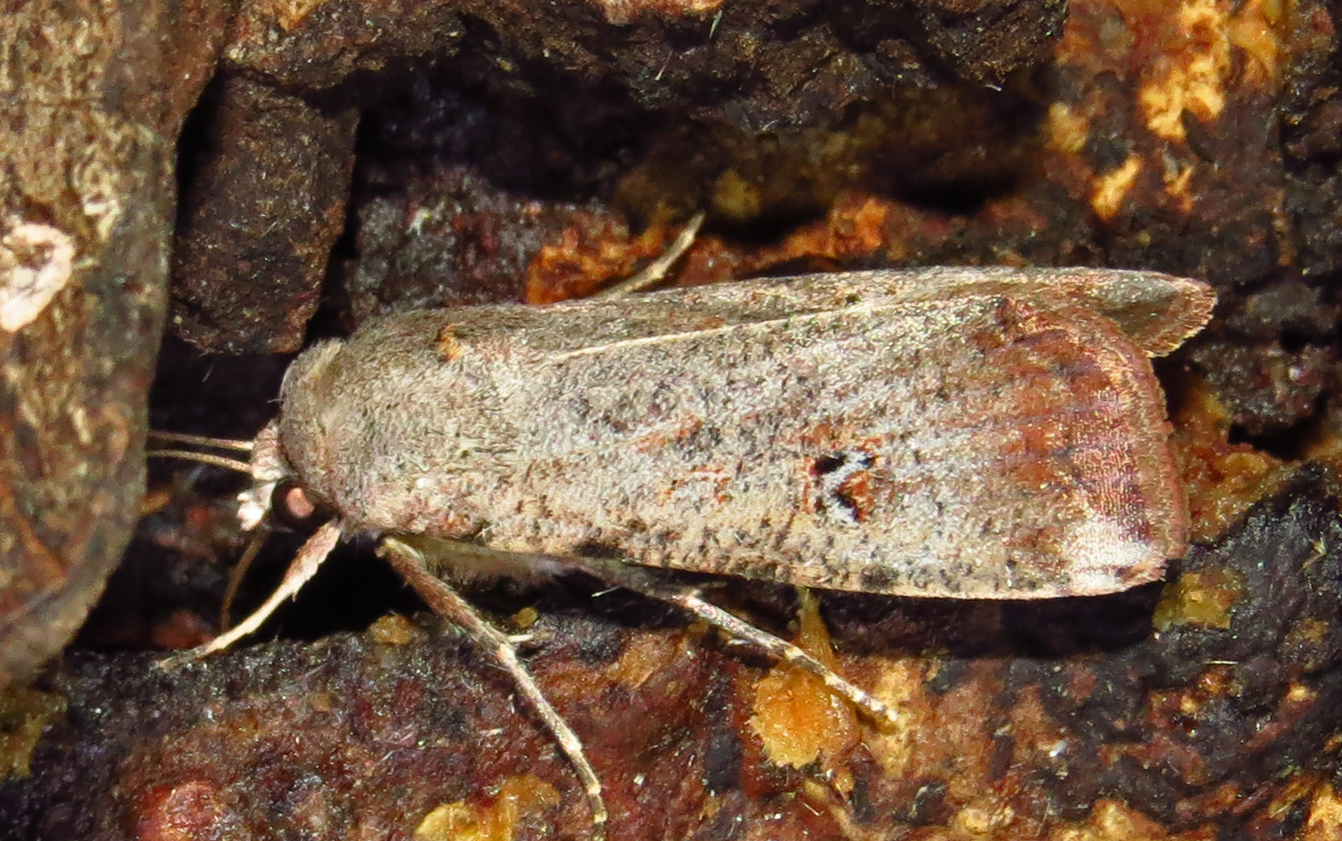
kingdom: Animalia
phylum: Arthropoda
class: Insecta
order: Lepidoptera
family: Noctuidae
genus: Anicla
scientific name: Anicla infecta
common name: Green cutworm
